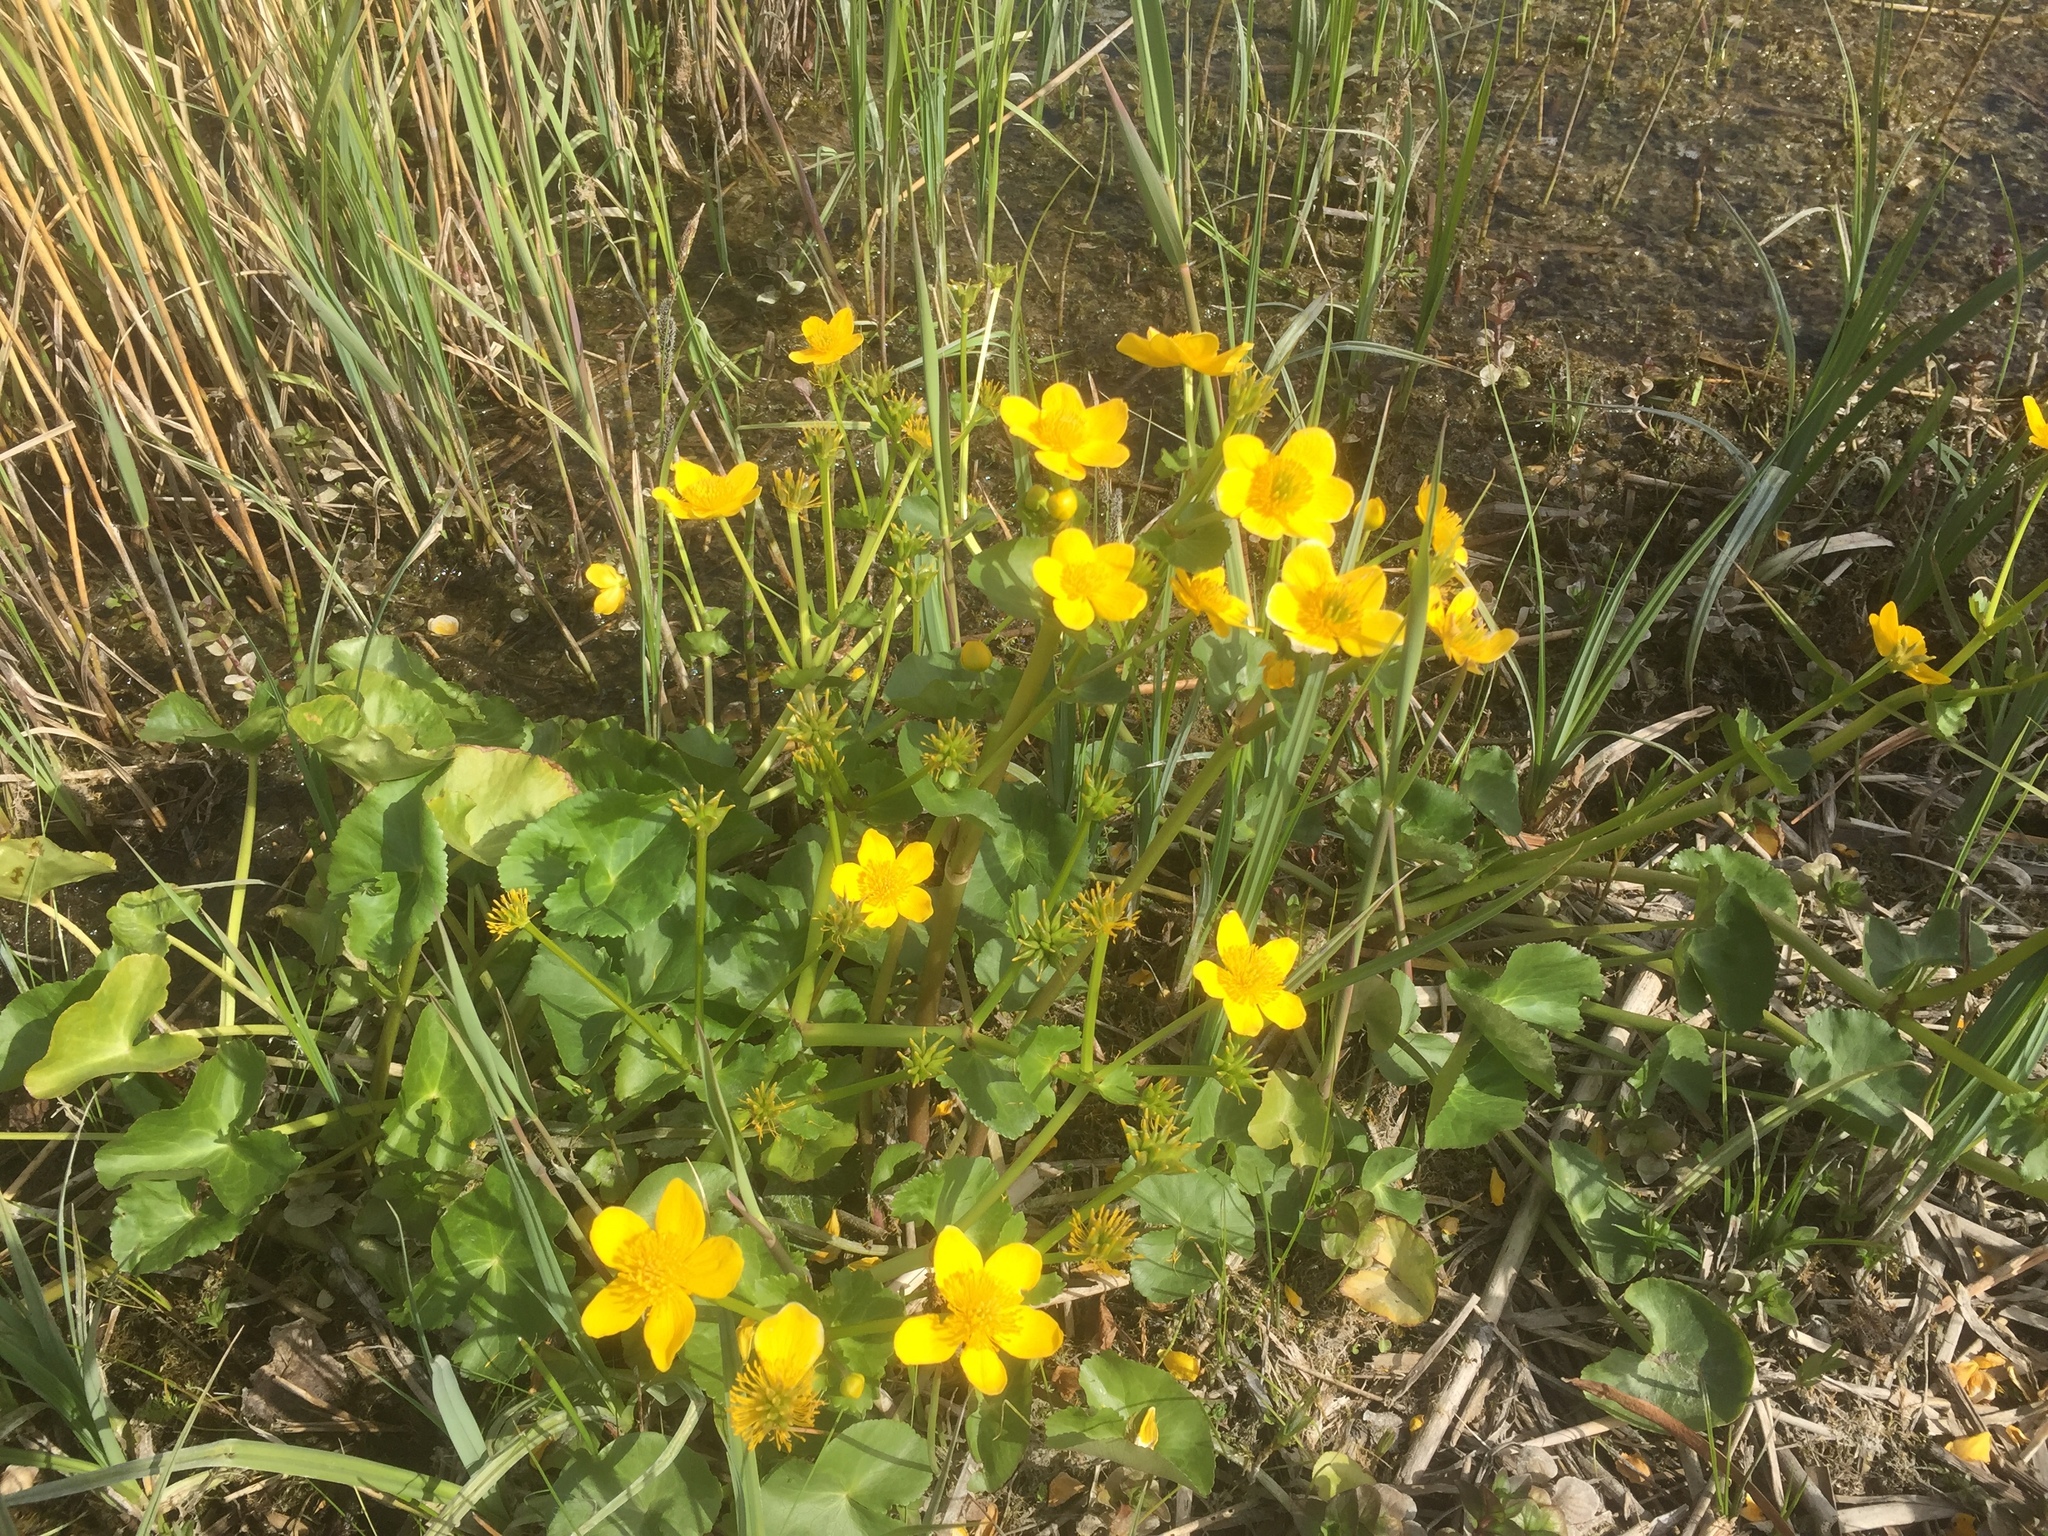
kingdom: Plantae
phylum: Tracheophyta
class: Magnoliopsida
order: Ranunculales
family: Ranunculaceae
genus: Caltha
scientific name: Caltha palustris
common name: Marsh marigold
